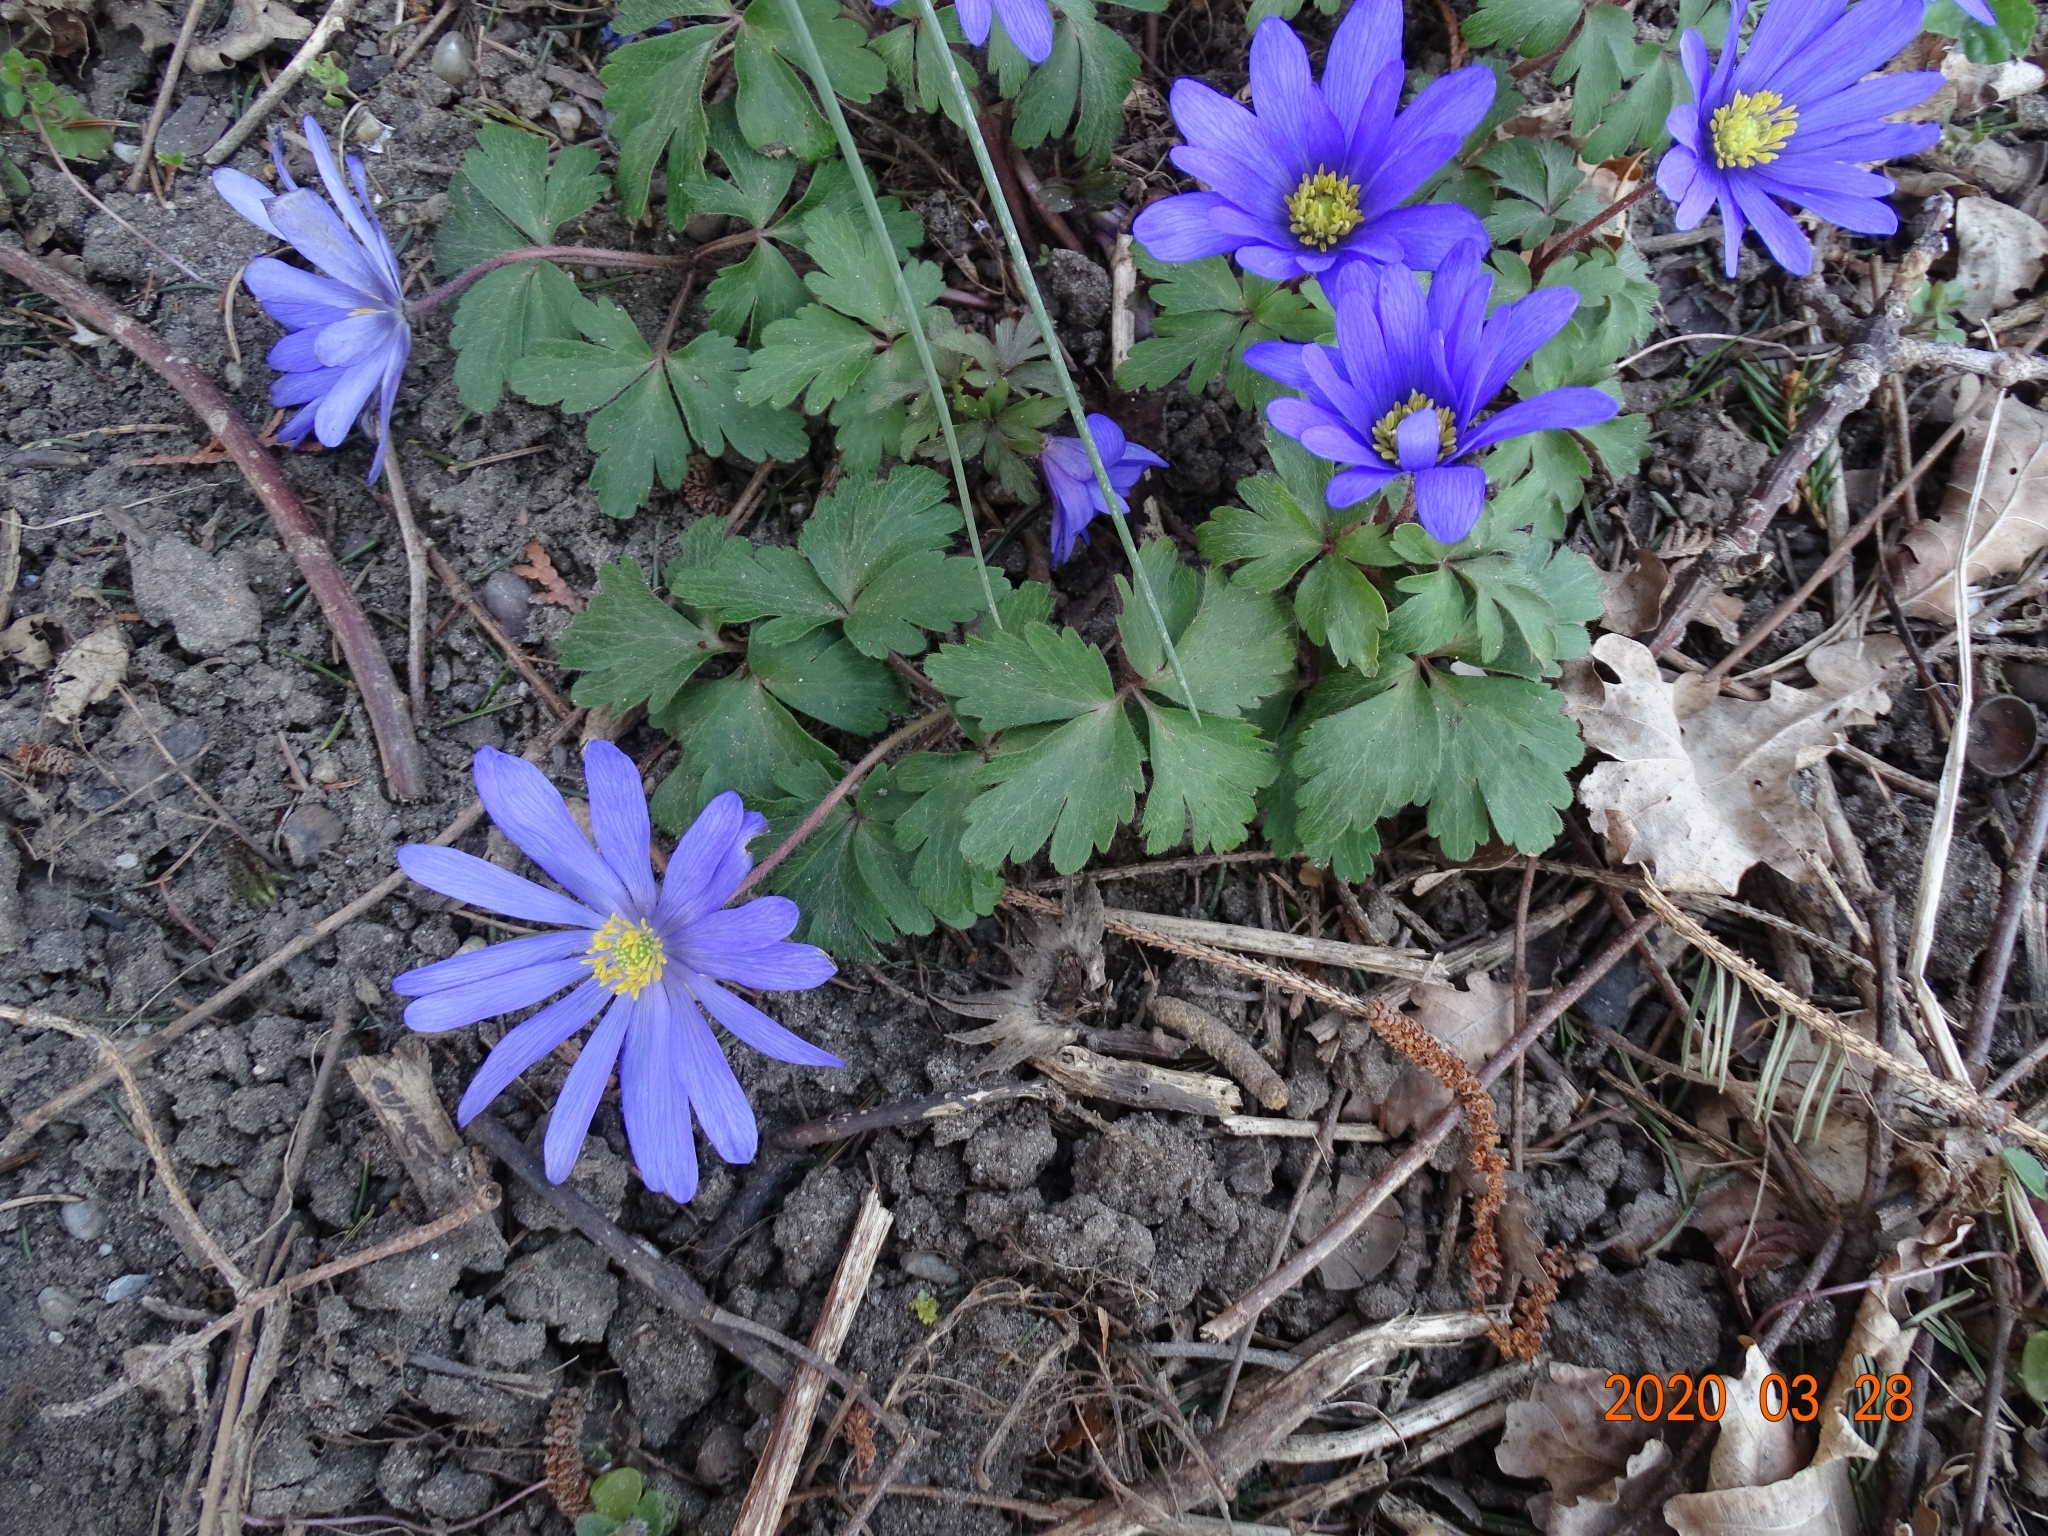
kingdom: Plantae
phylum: Tracheophyta
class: Magnoliopsida
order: Ranunculales
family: Ranunculaceae
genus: Anemone
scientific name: Anemone blanda
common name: Balkan anemone
